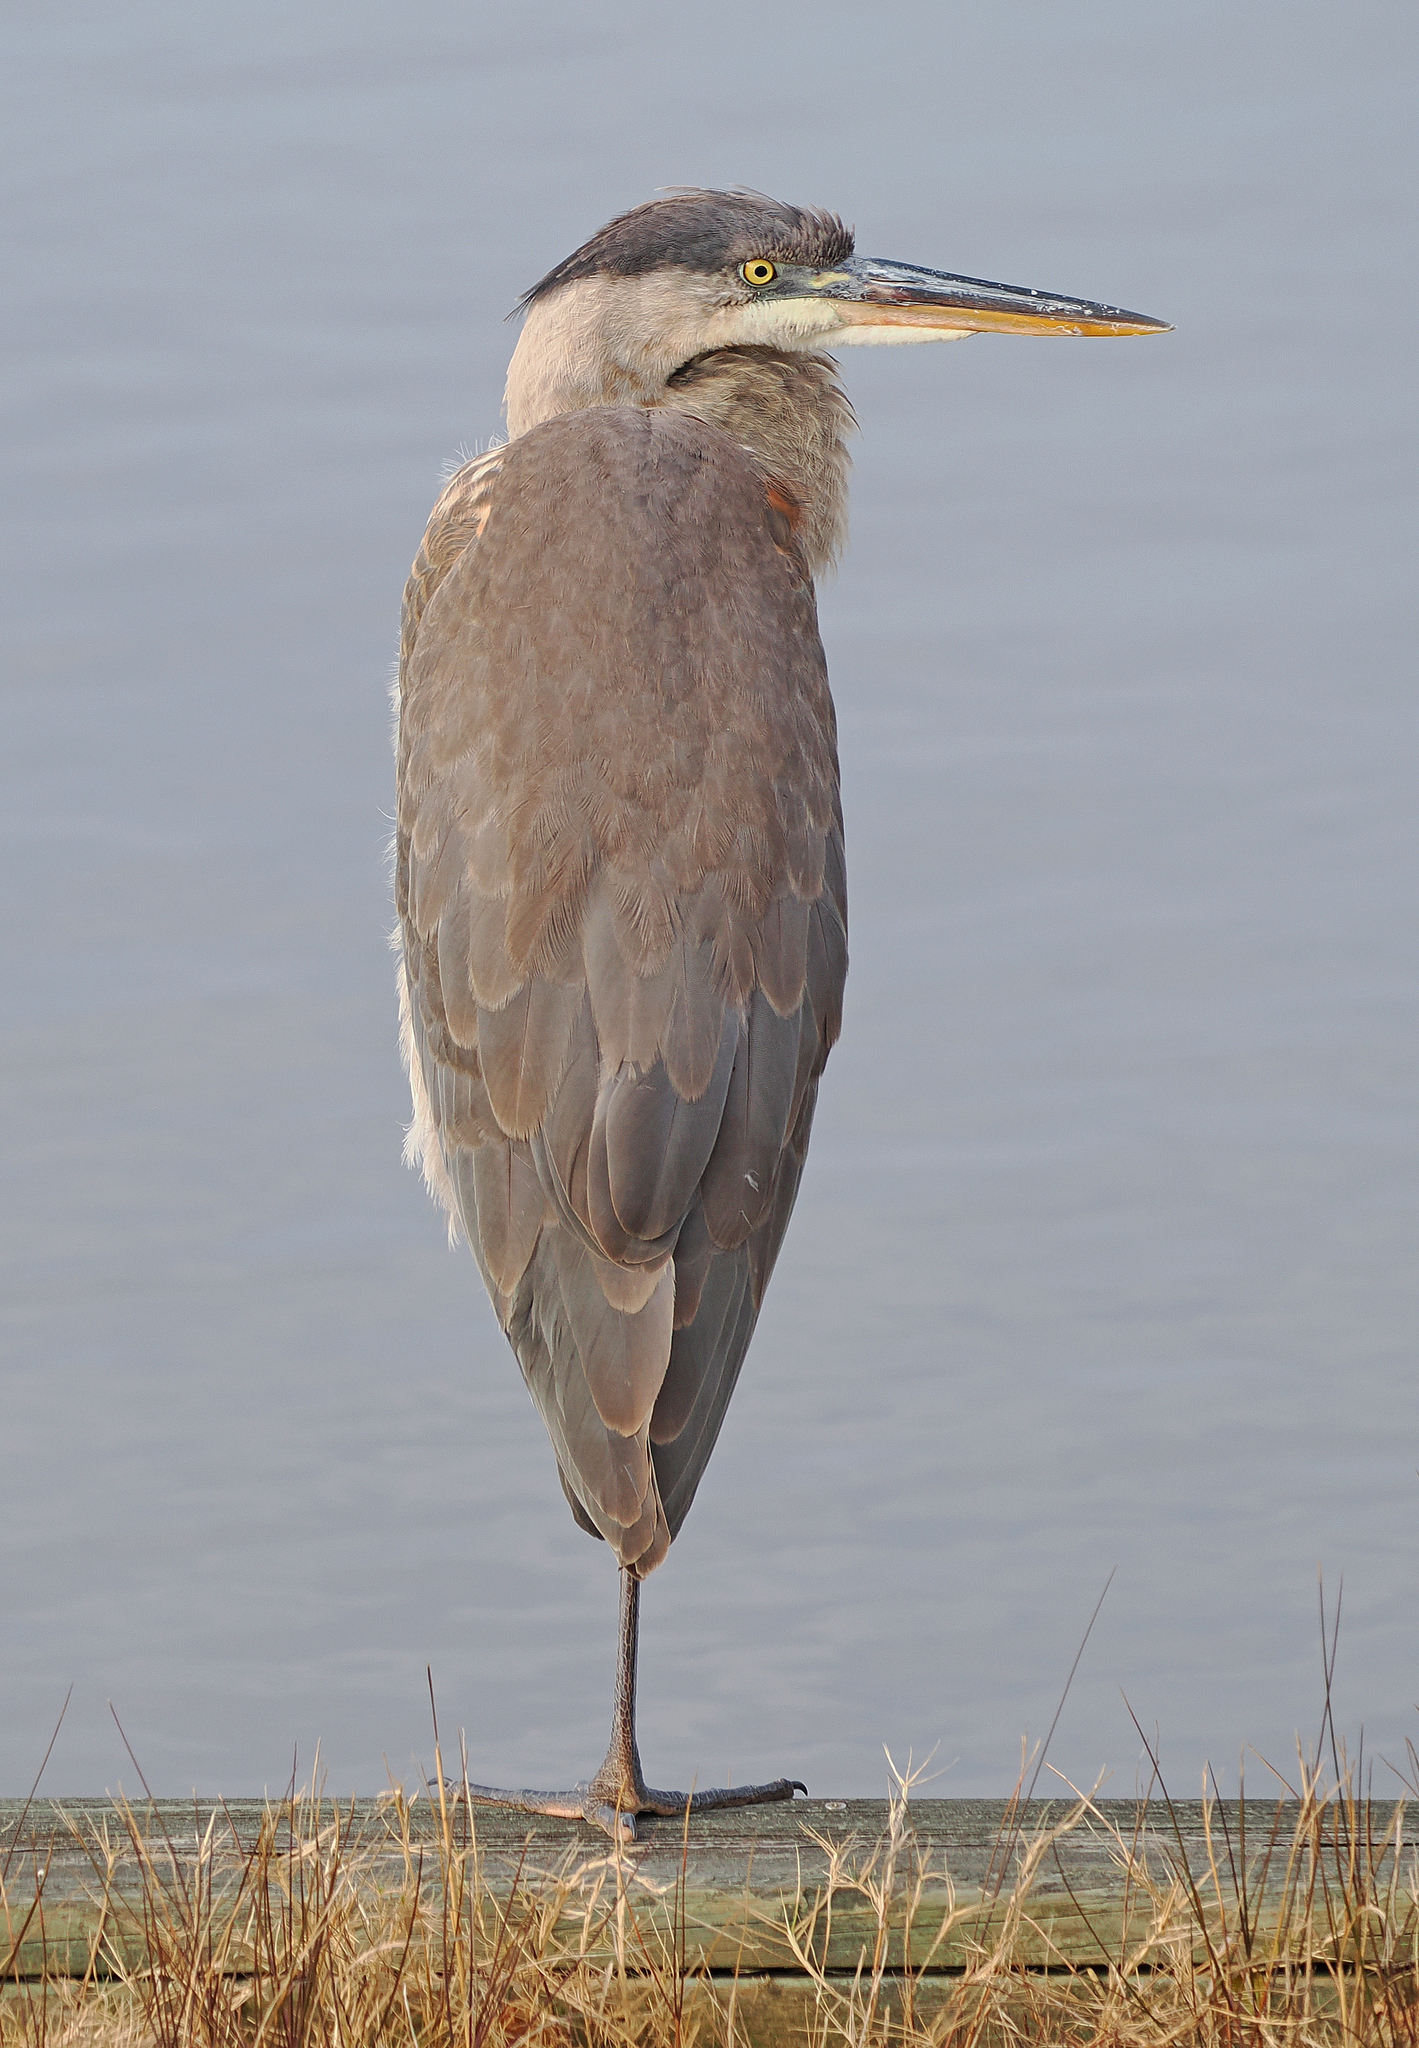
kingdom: Animalia
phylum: Chordata
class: Aves
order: Pelecaniformes
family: Ardeidae
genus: Ardea
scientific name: Ardea herodias
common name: Great blue heron
